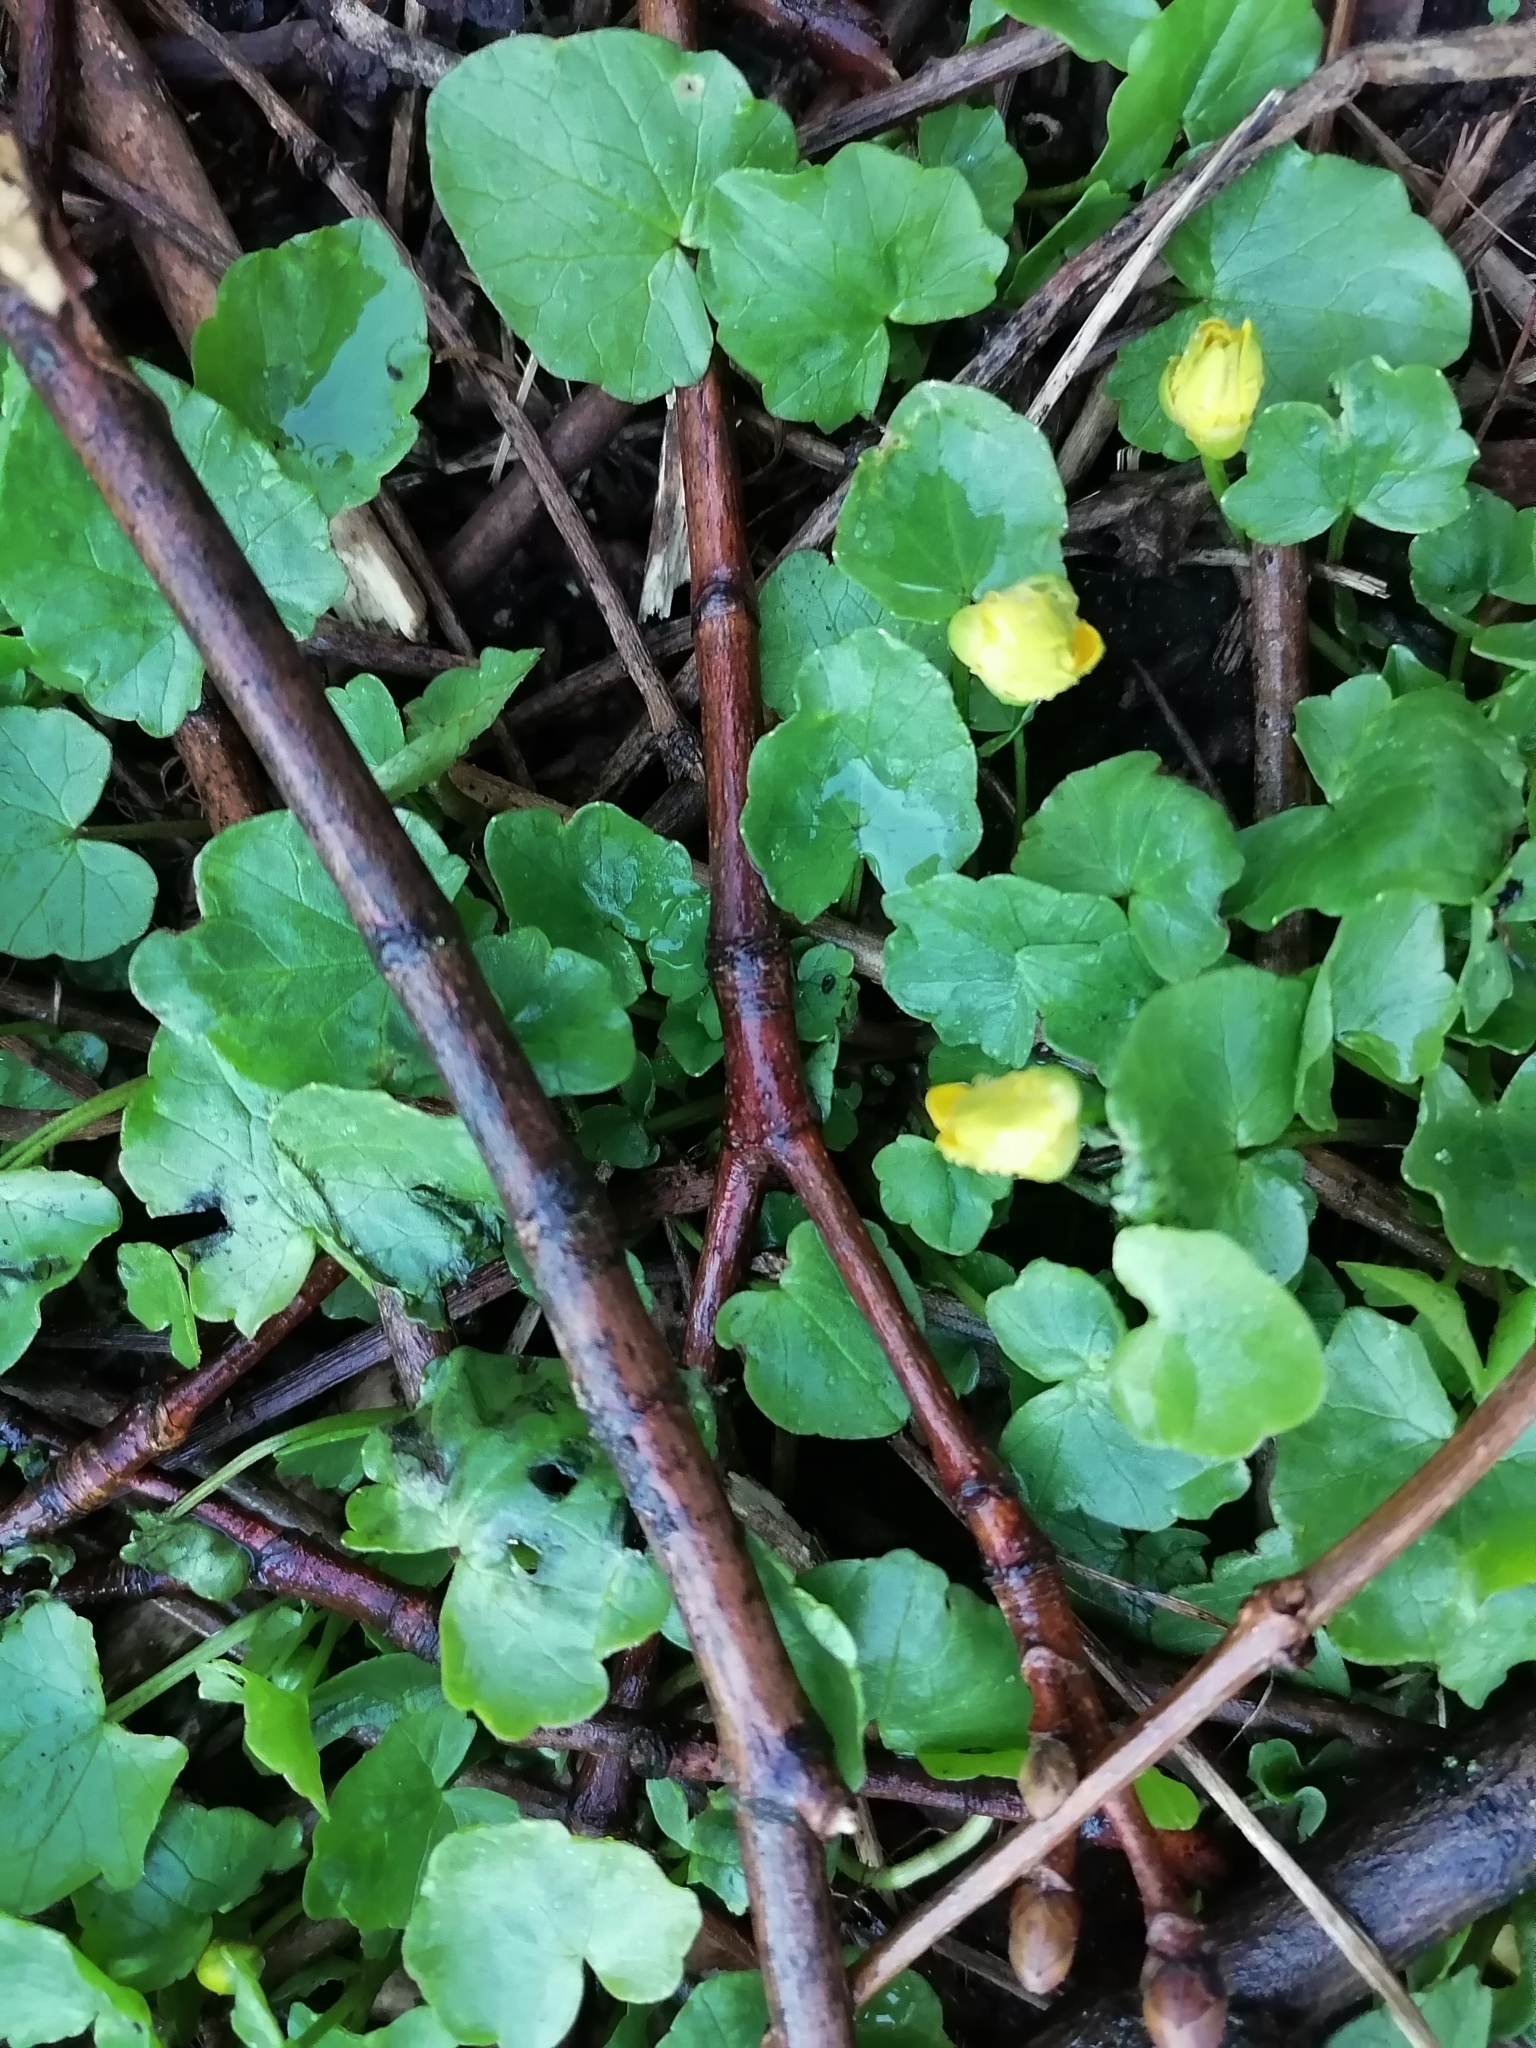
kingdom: Plantae
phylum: Tracheophyta
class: Magnoliopsida
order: Ranunculales
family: Ranunculaceae
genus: Ficaria
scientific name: Ficaria verna
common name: Lesser celandine
